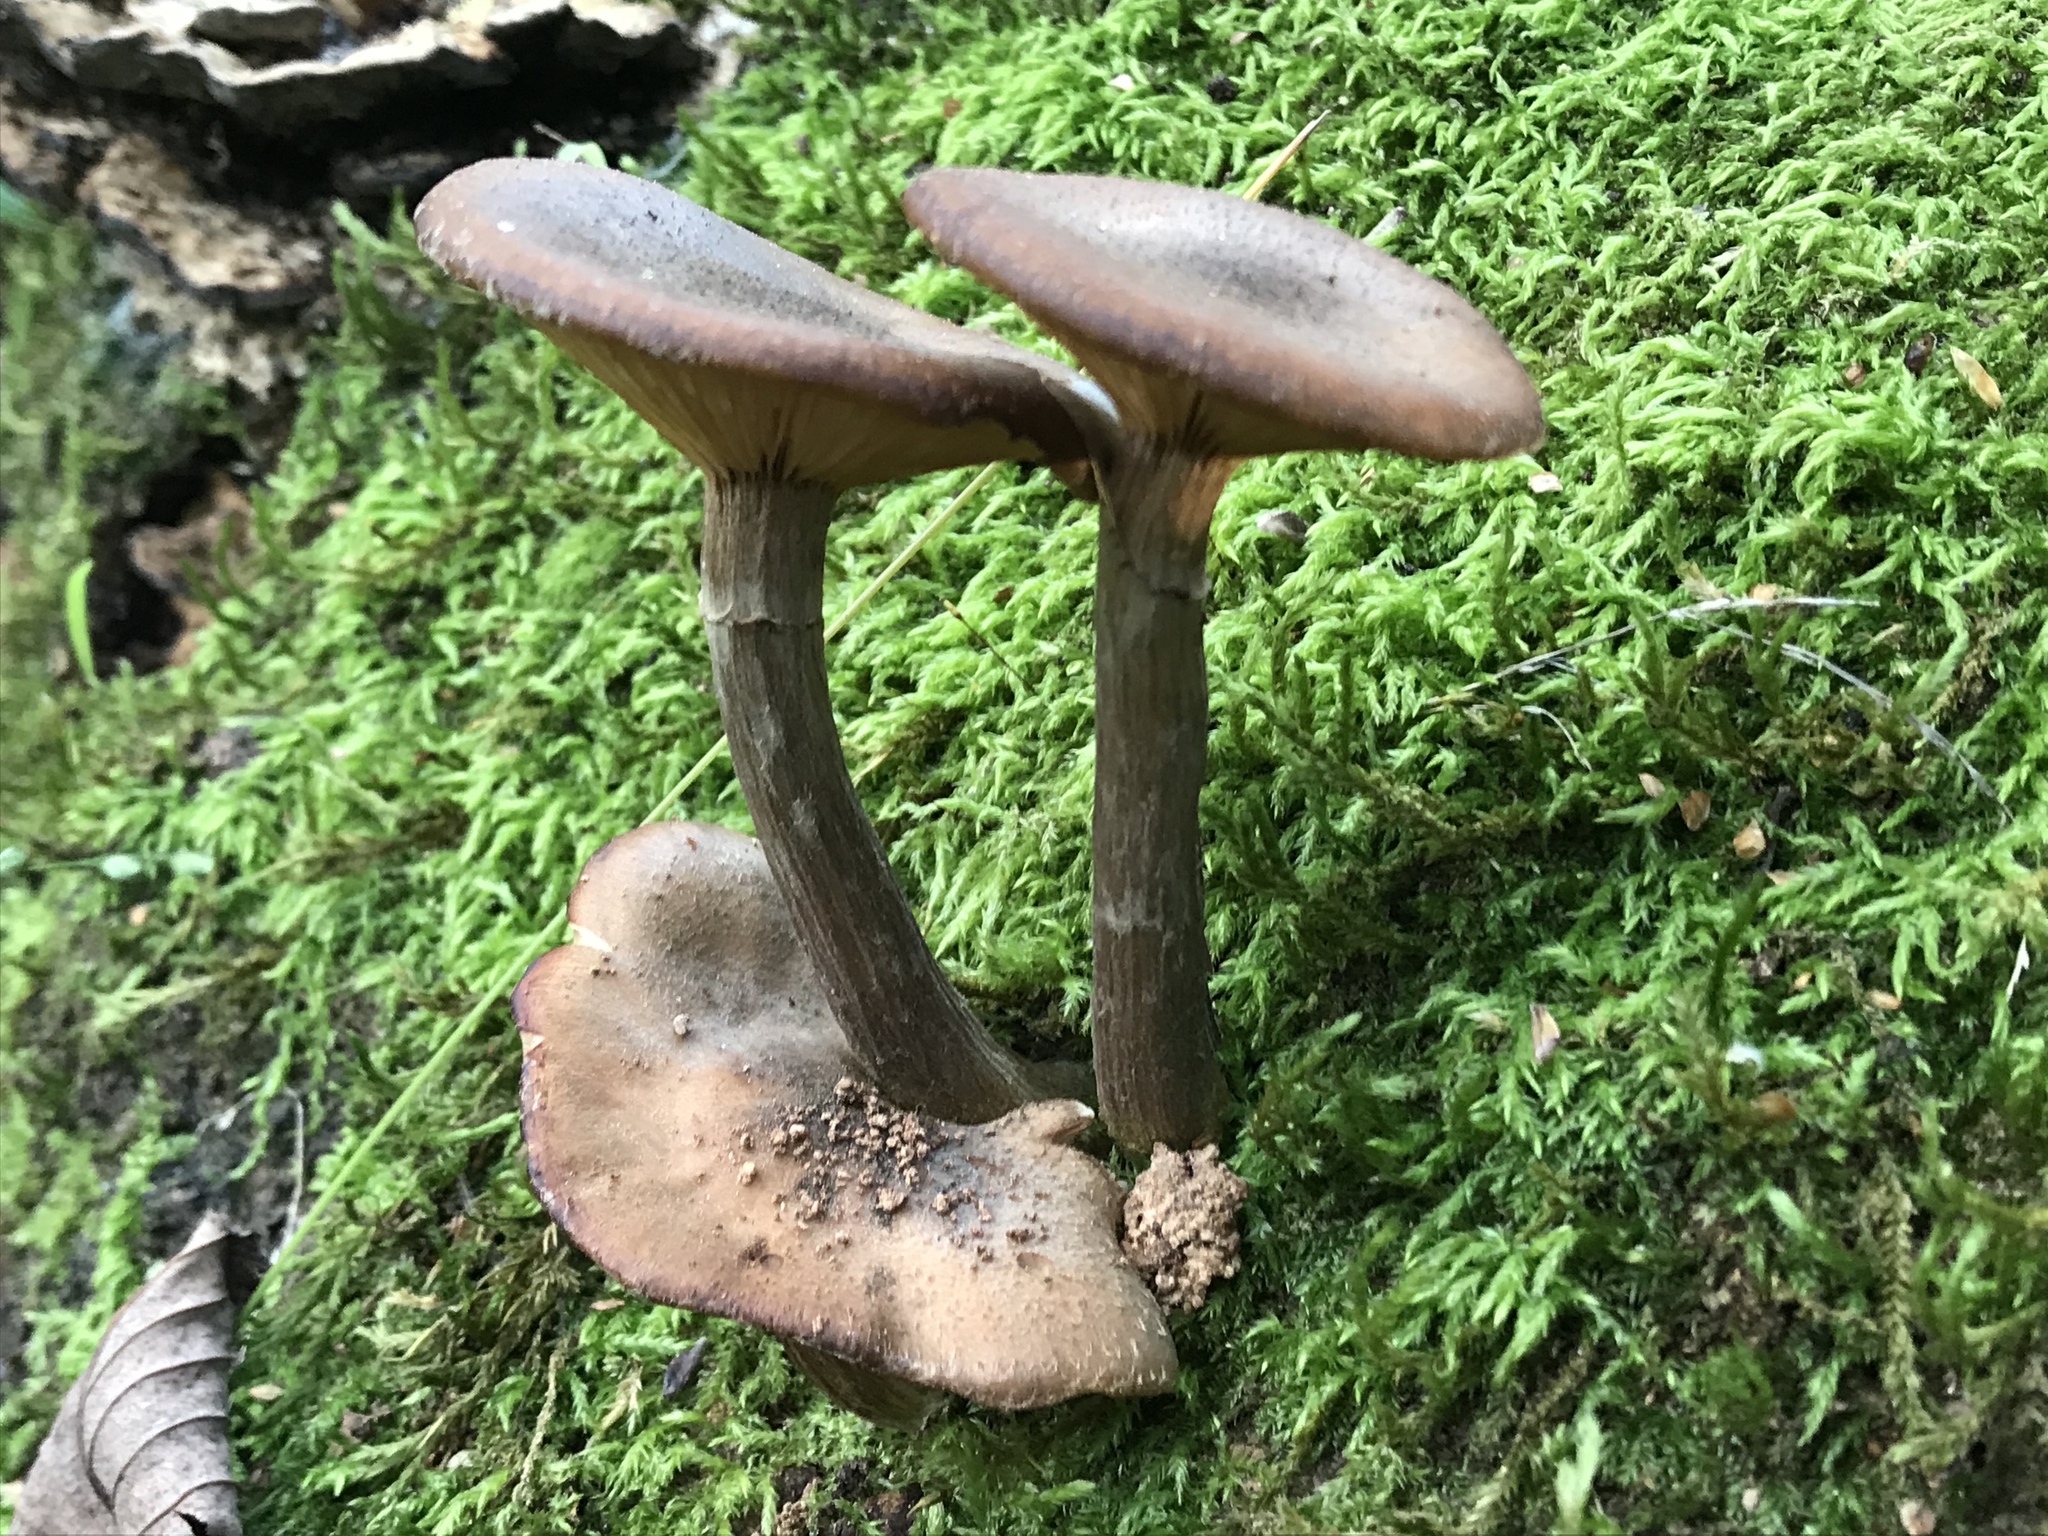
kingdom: Fungi
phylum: Basidiomycota
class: Agaricomycetes
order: Agaricales
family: Physalacriaceae
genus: Armillaria
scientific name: Armillaria mellea
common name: Honey fungus
